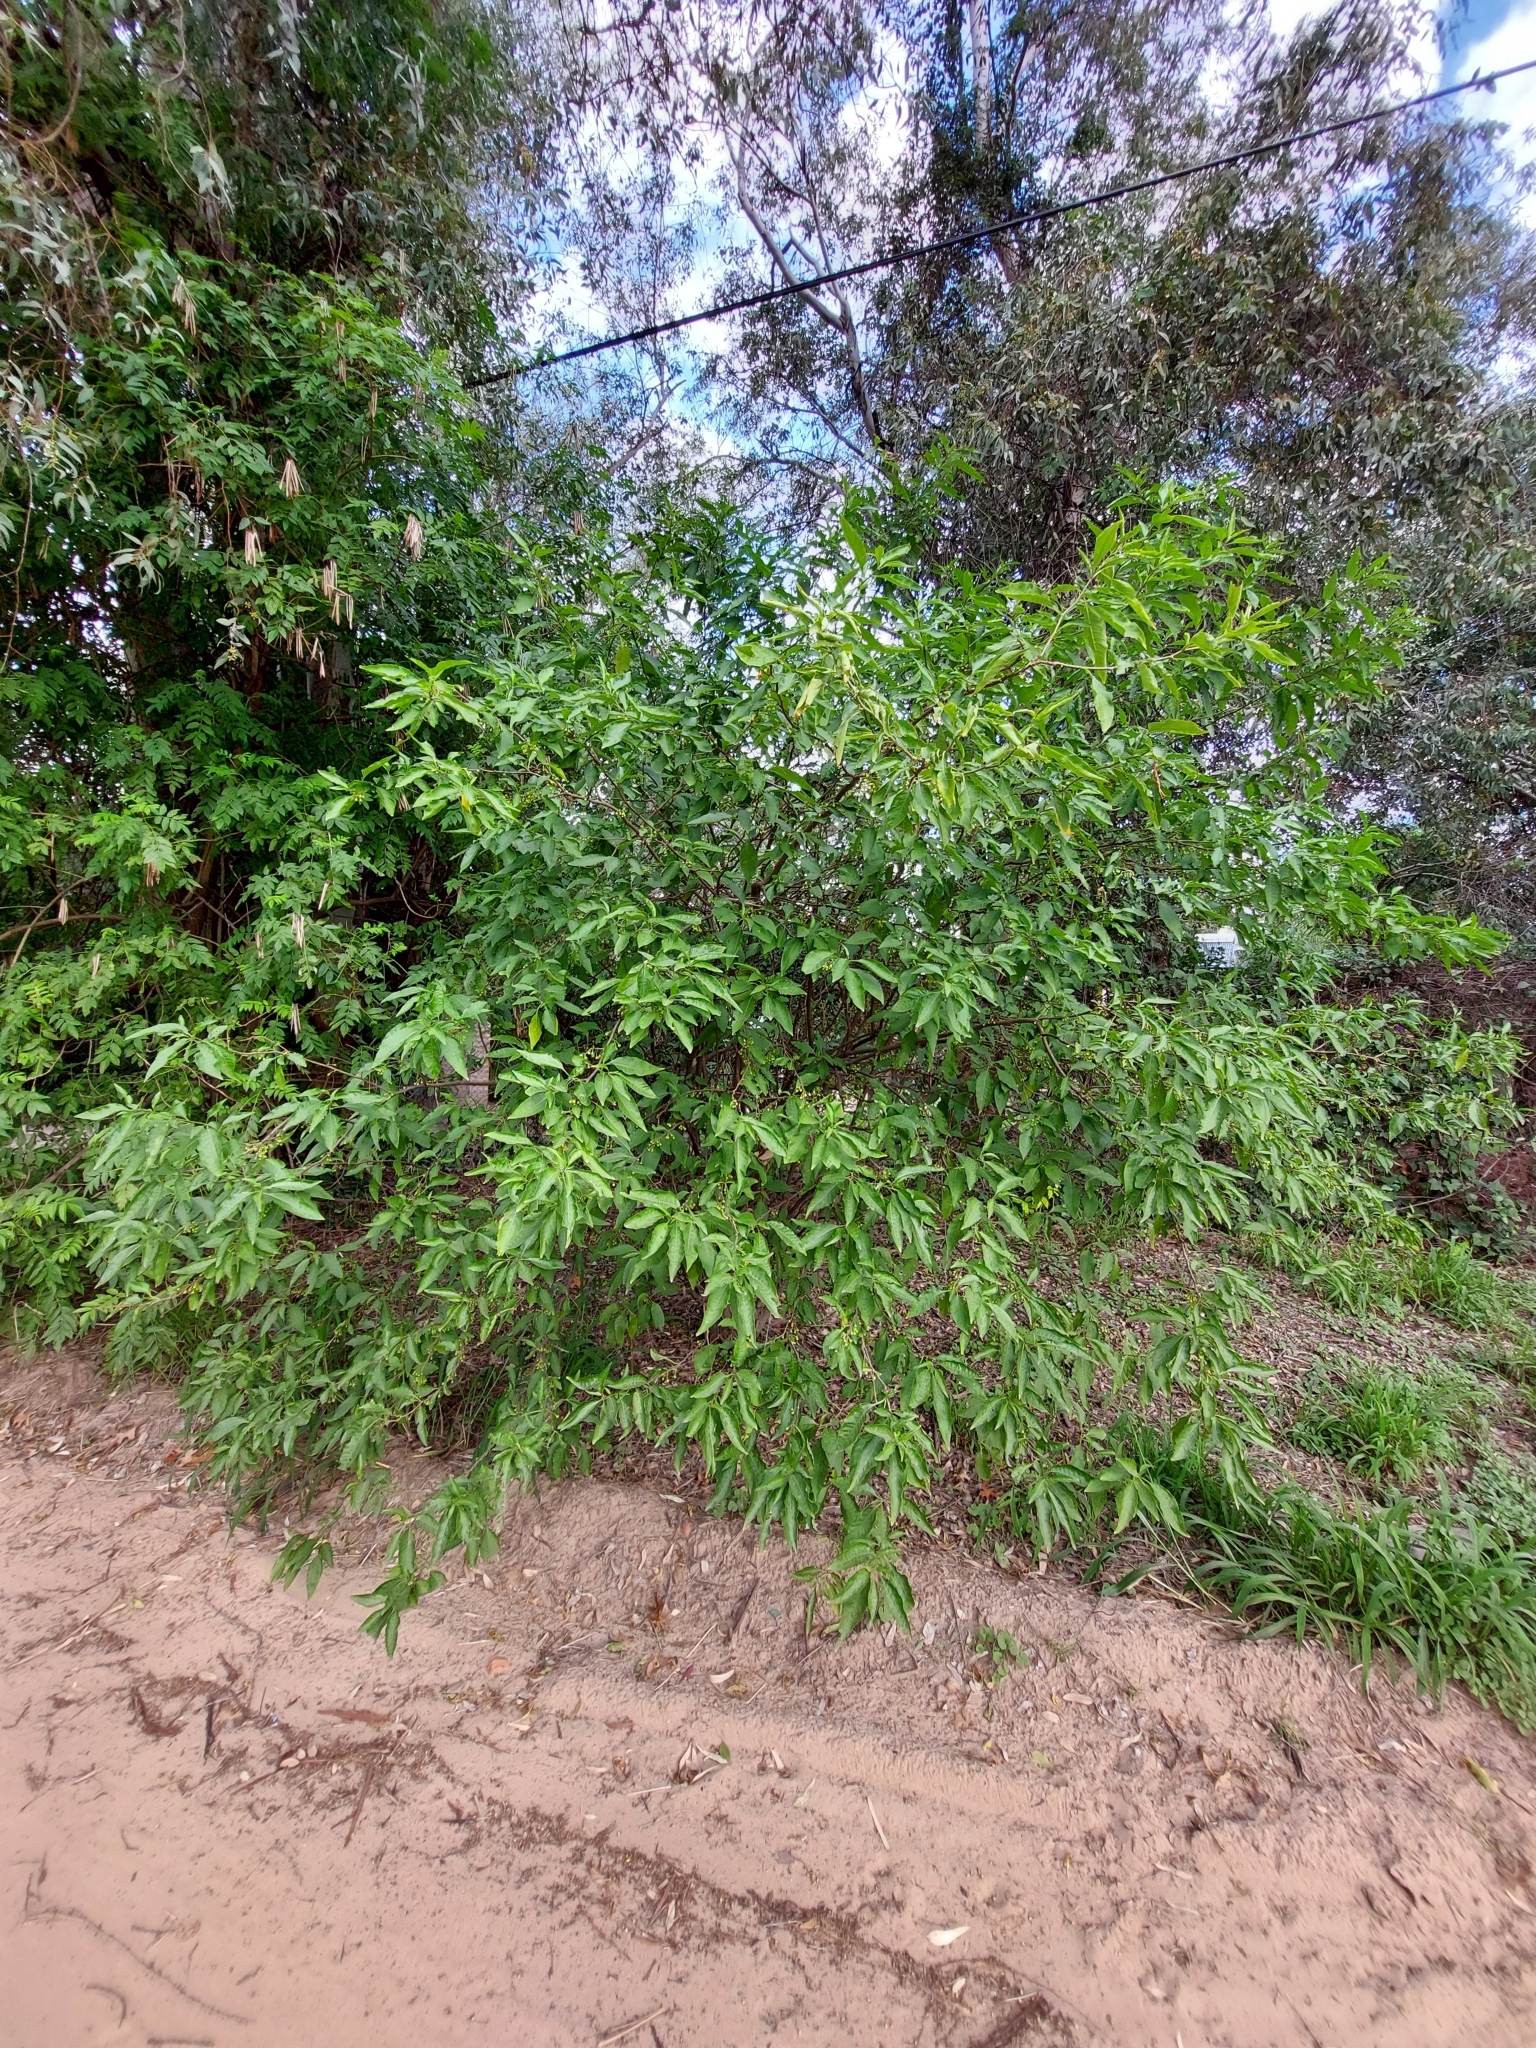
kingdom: Plantae
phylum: Tracheophyta
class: Magnoliopsida
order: Solanales
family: Solanaceae
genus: Vassobia
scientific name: Vassobia breviflora
